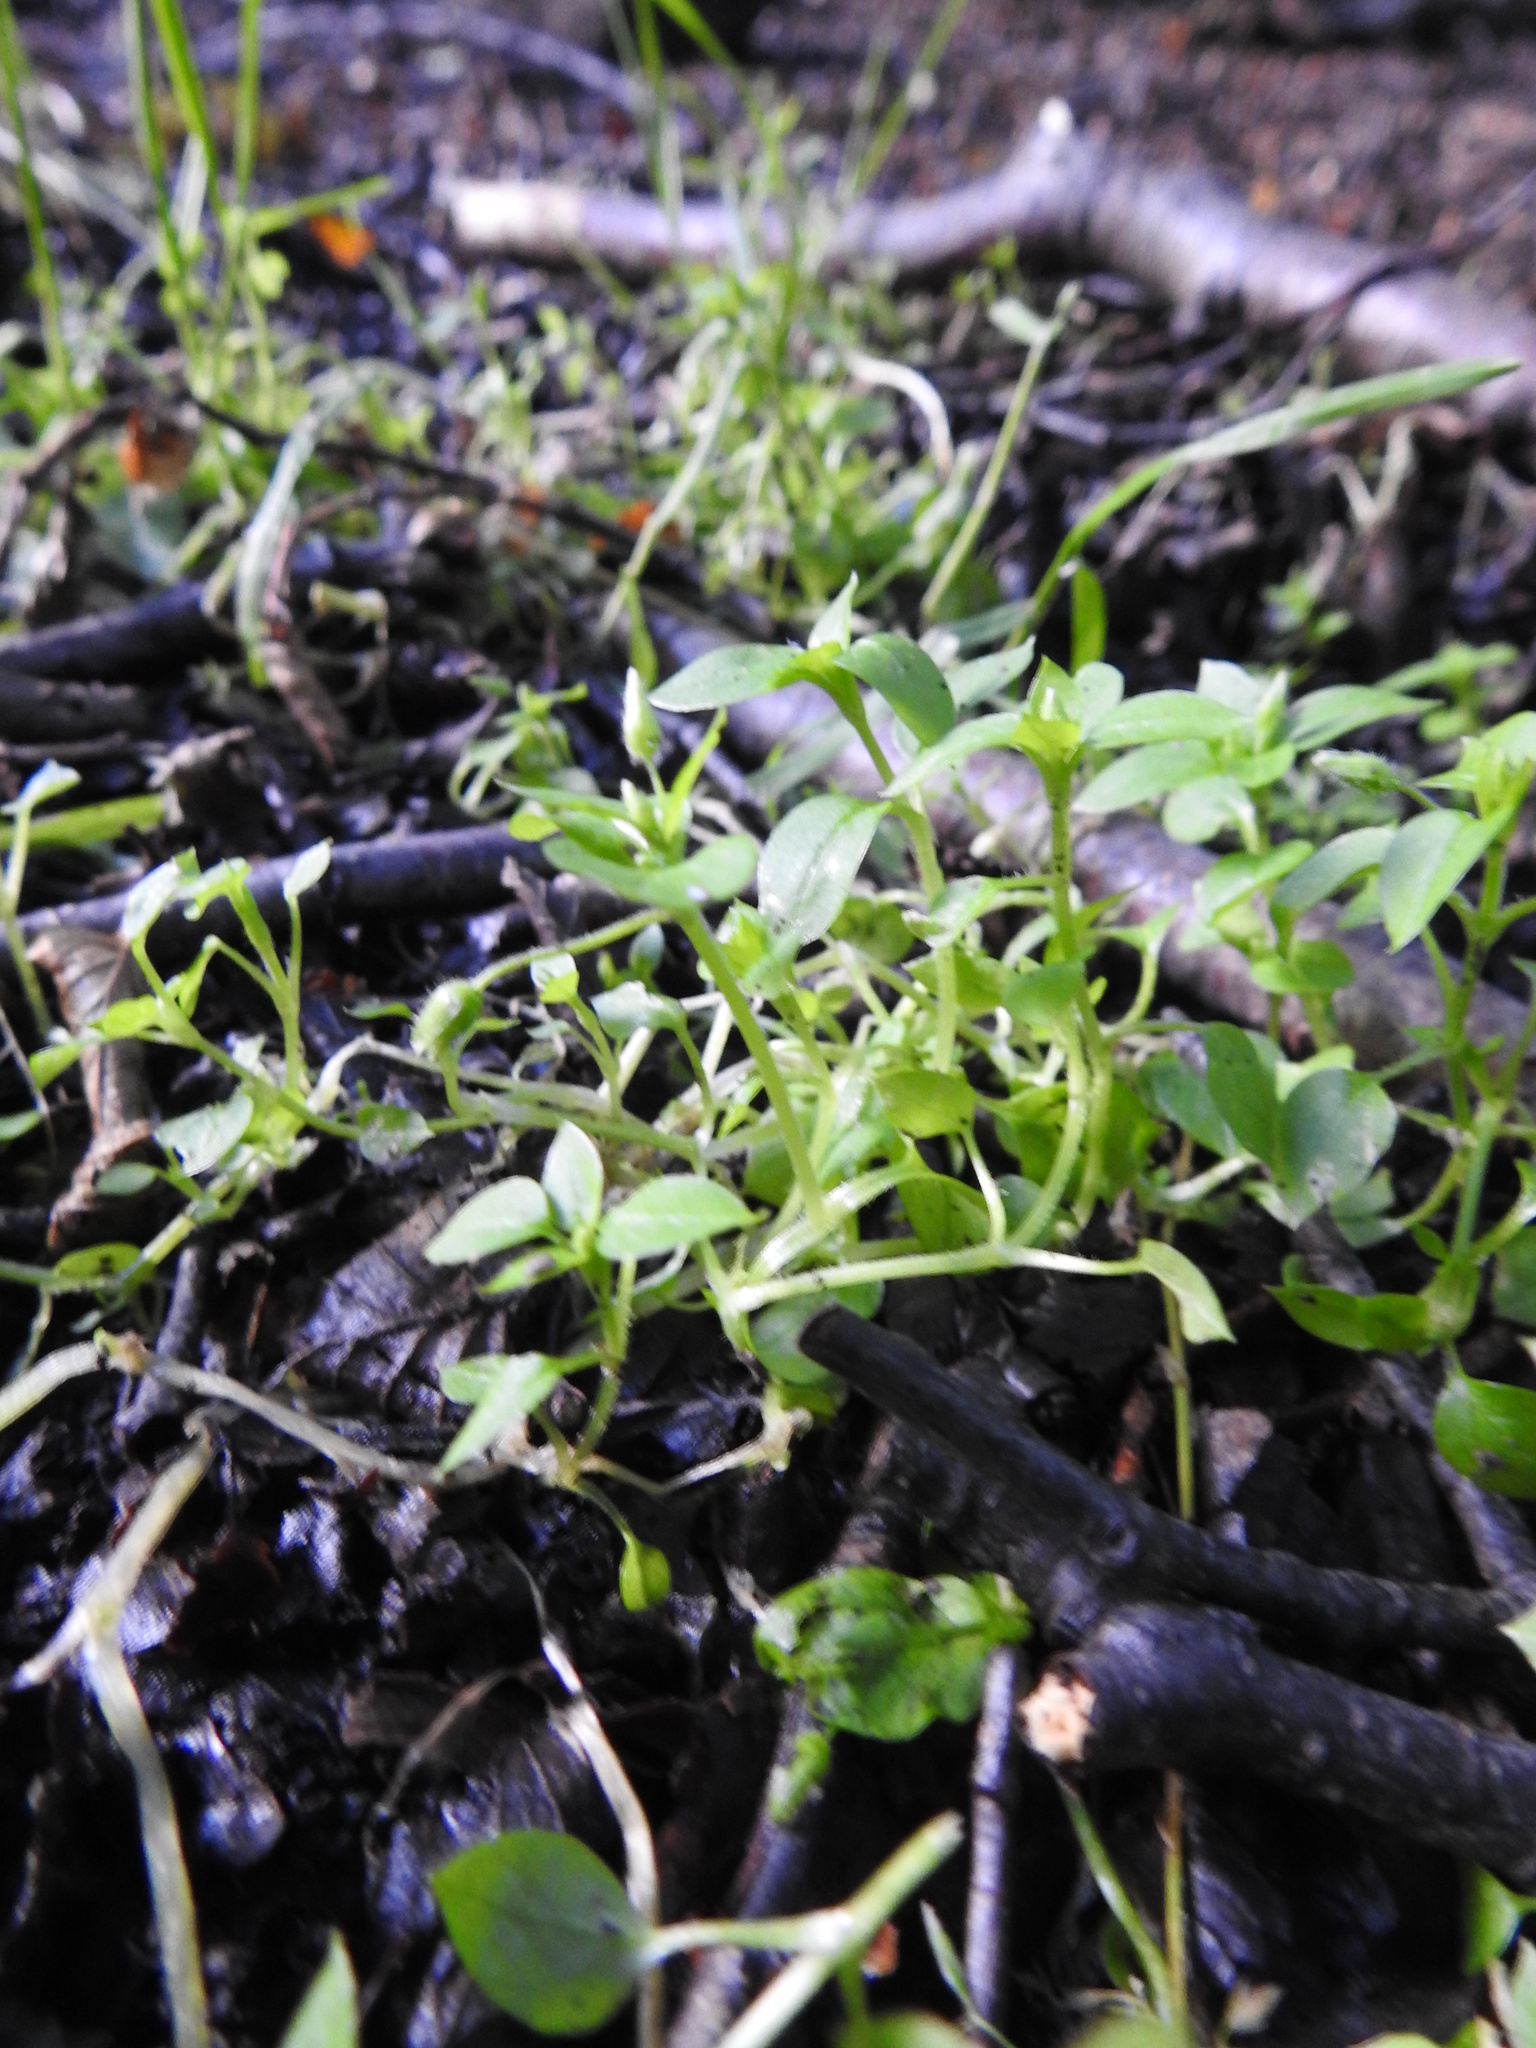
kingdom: Plantae
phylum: Tracheophyta
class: Magnoliopsida
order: Caryophyllales
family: Caryophyllaceae
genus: Stellaria
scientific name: Stellaria media
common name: Common chickweed
